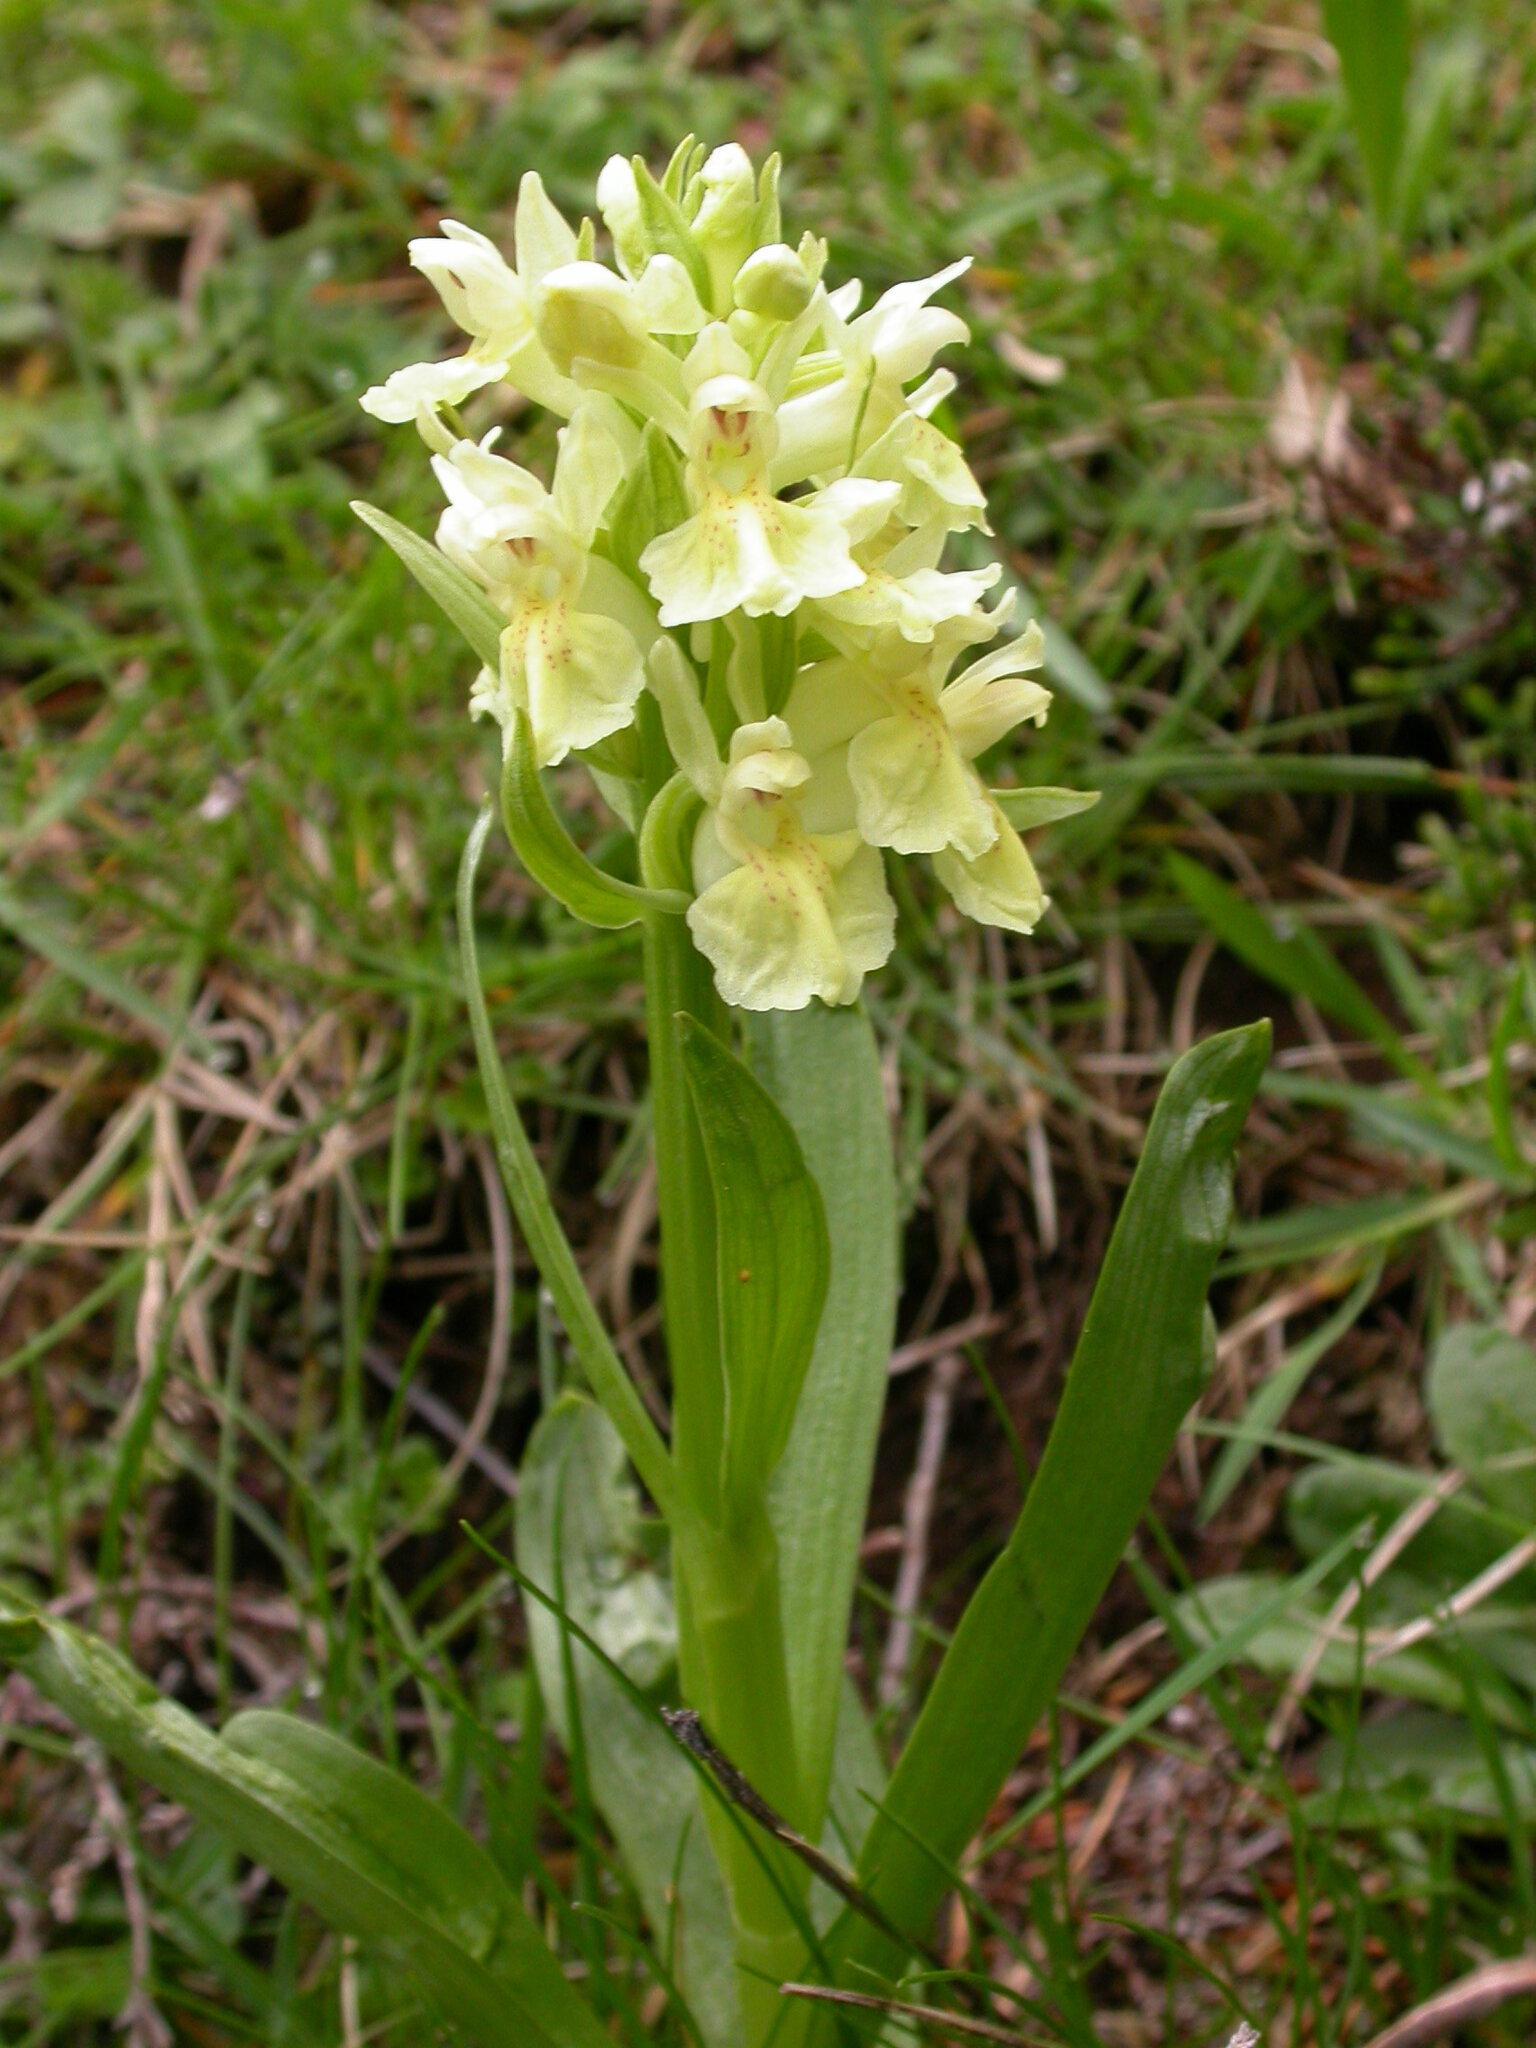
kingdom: Plantae
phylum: Tracheophyta
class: Liliopsida
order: Asparagales
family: Orchidaceae
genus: Dactylorhiza
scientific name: Dactylorhiza sambucina
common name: Elder-flowered orchid
